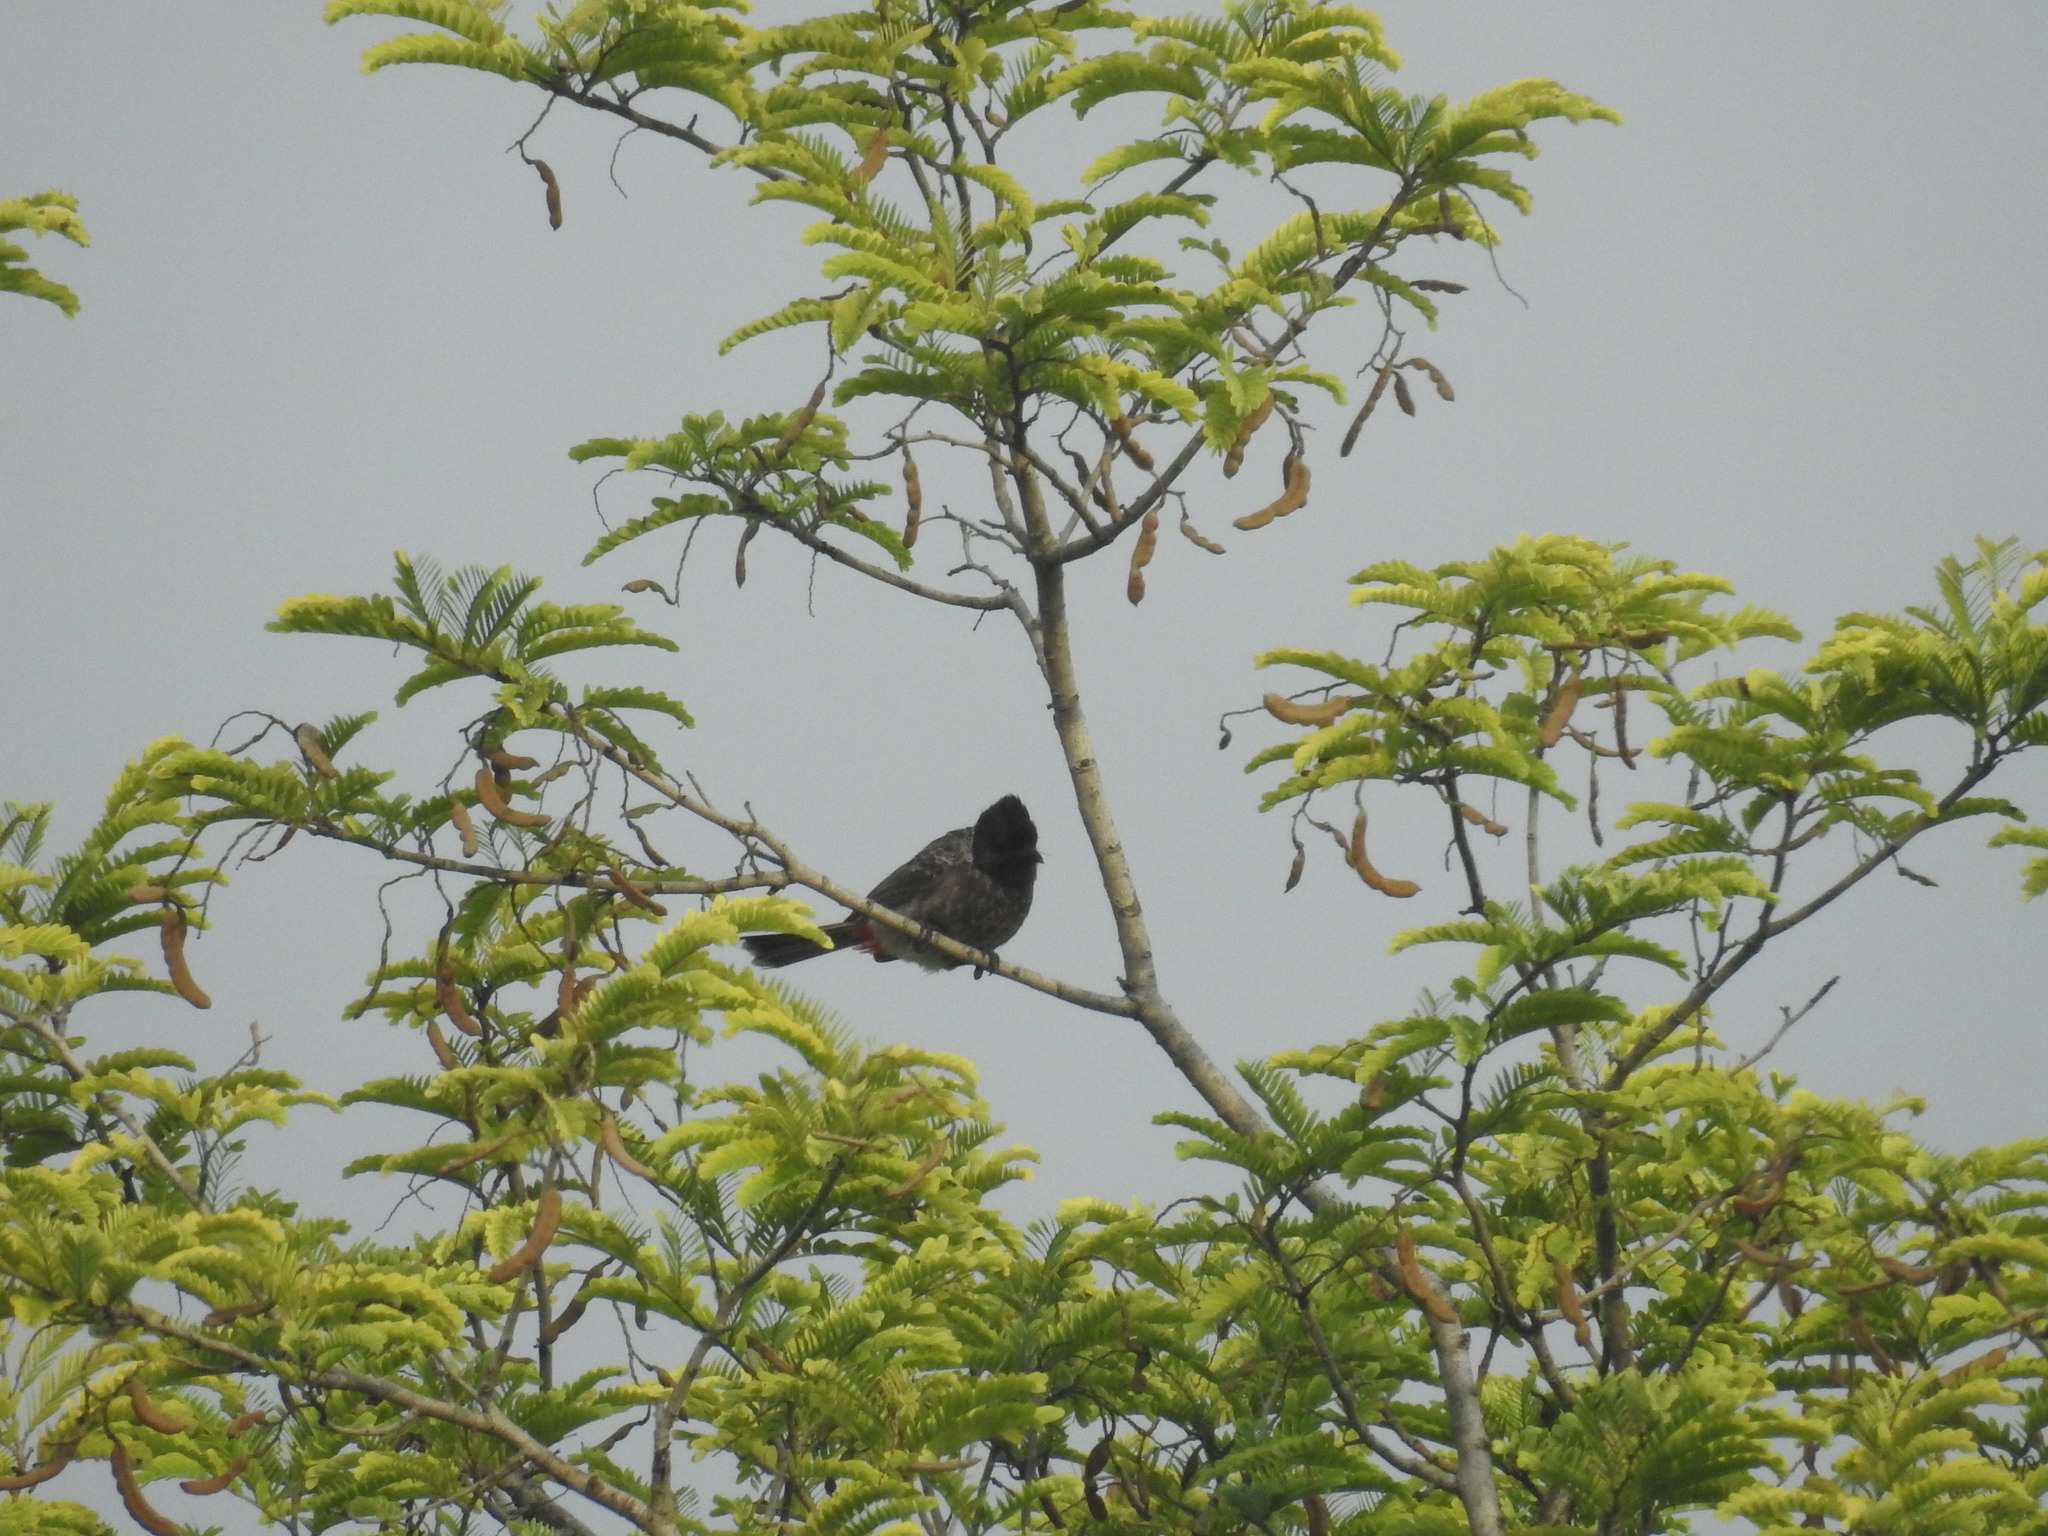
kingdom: Animalia
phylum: Chordata
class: Aves
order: Passeriformes
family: Pycnonotidae
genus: Pycnonotus
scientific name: Pycnonotus cafer
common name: Red-vented bulbul
